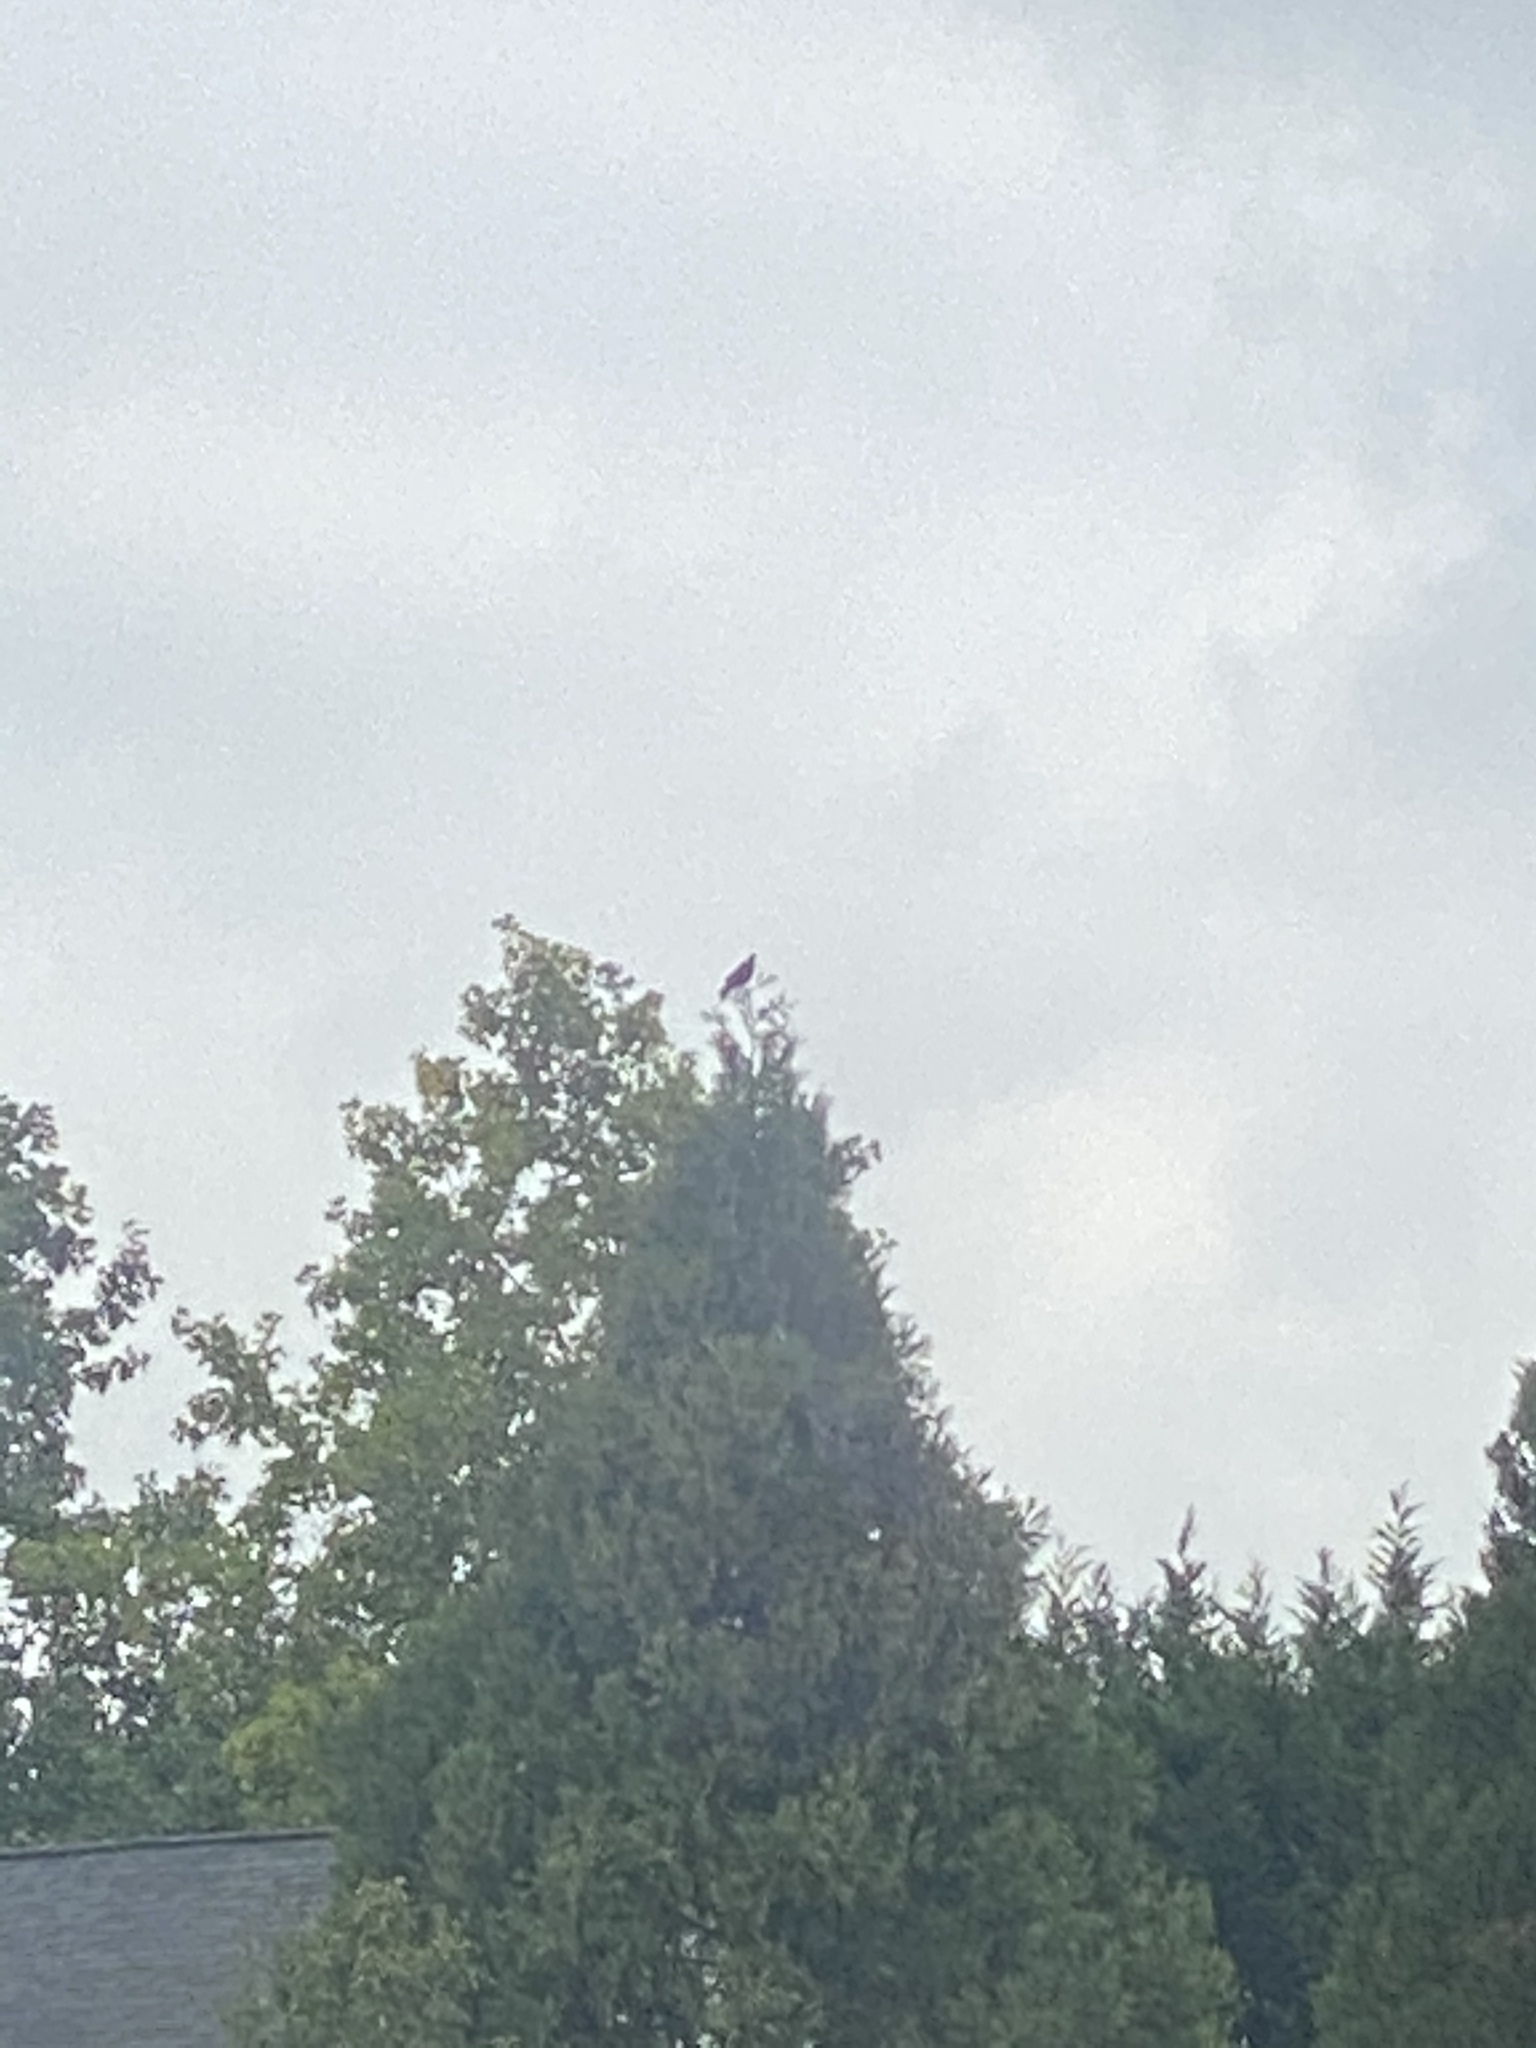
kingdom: Animalia
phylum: Chordata
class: Aves
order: Passeriformes
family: Corvidae
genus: Corvus
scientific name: Corvus brachyrhynchos
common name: American crow
